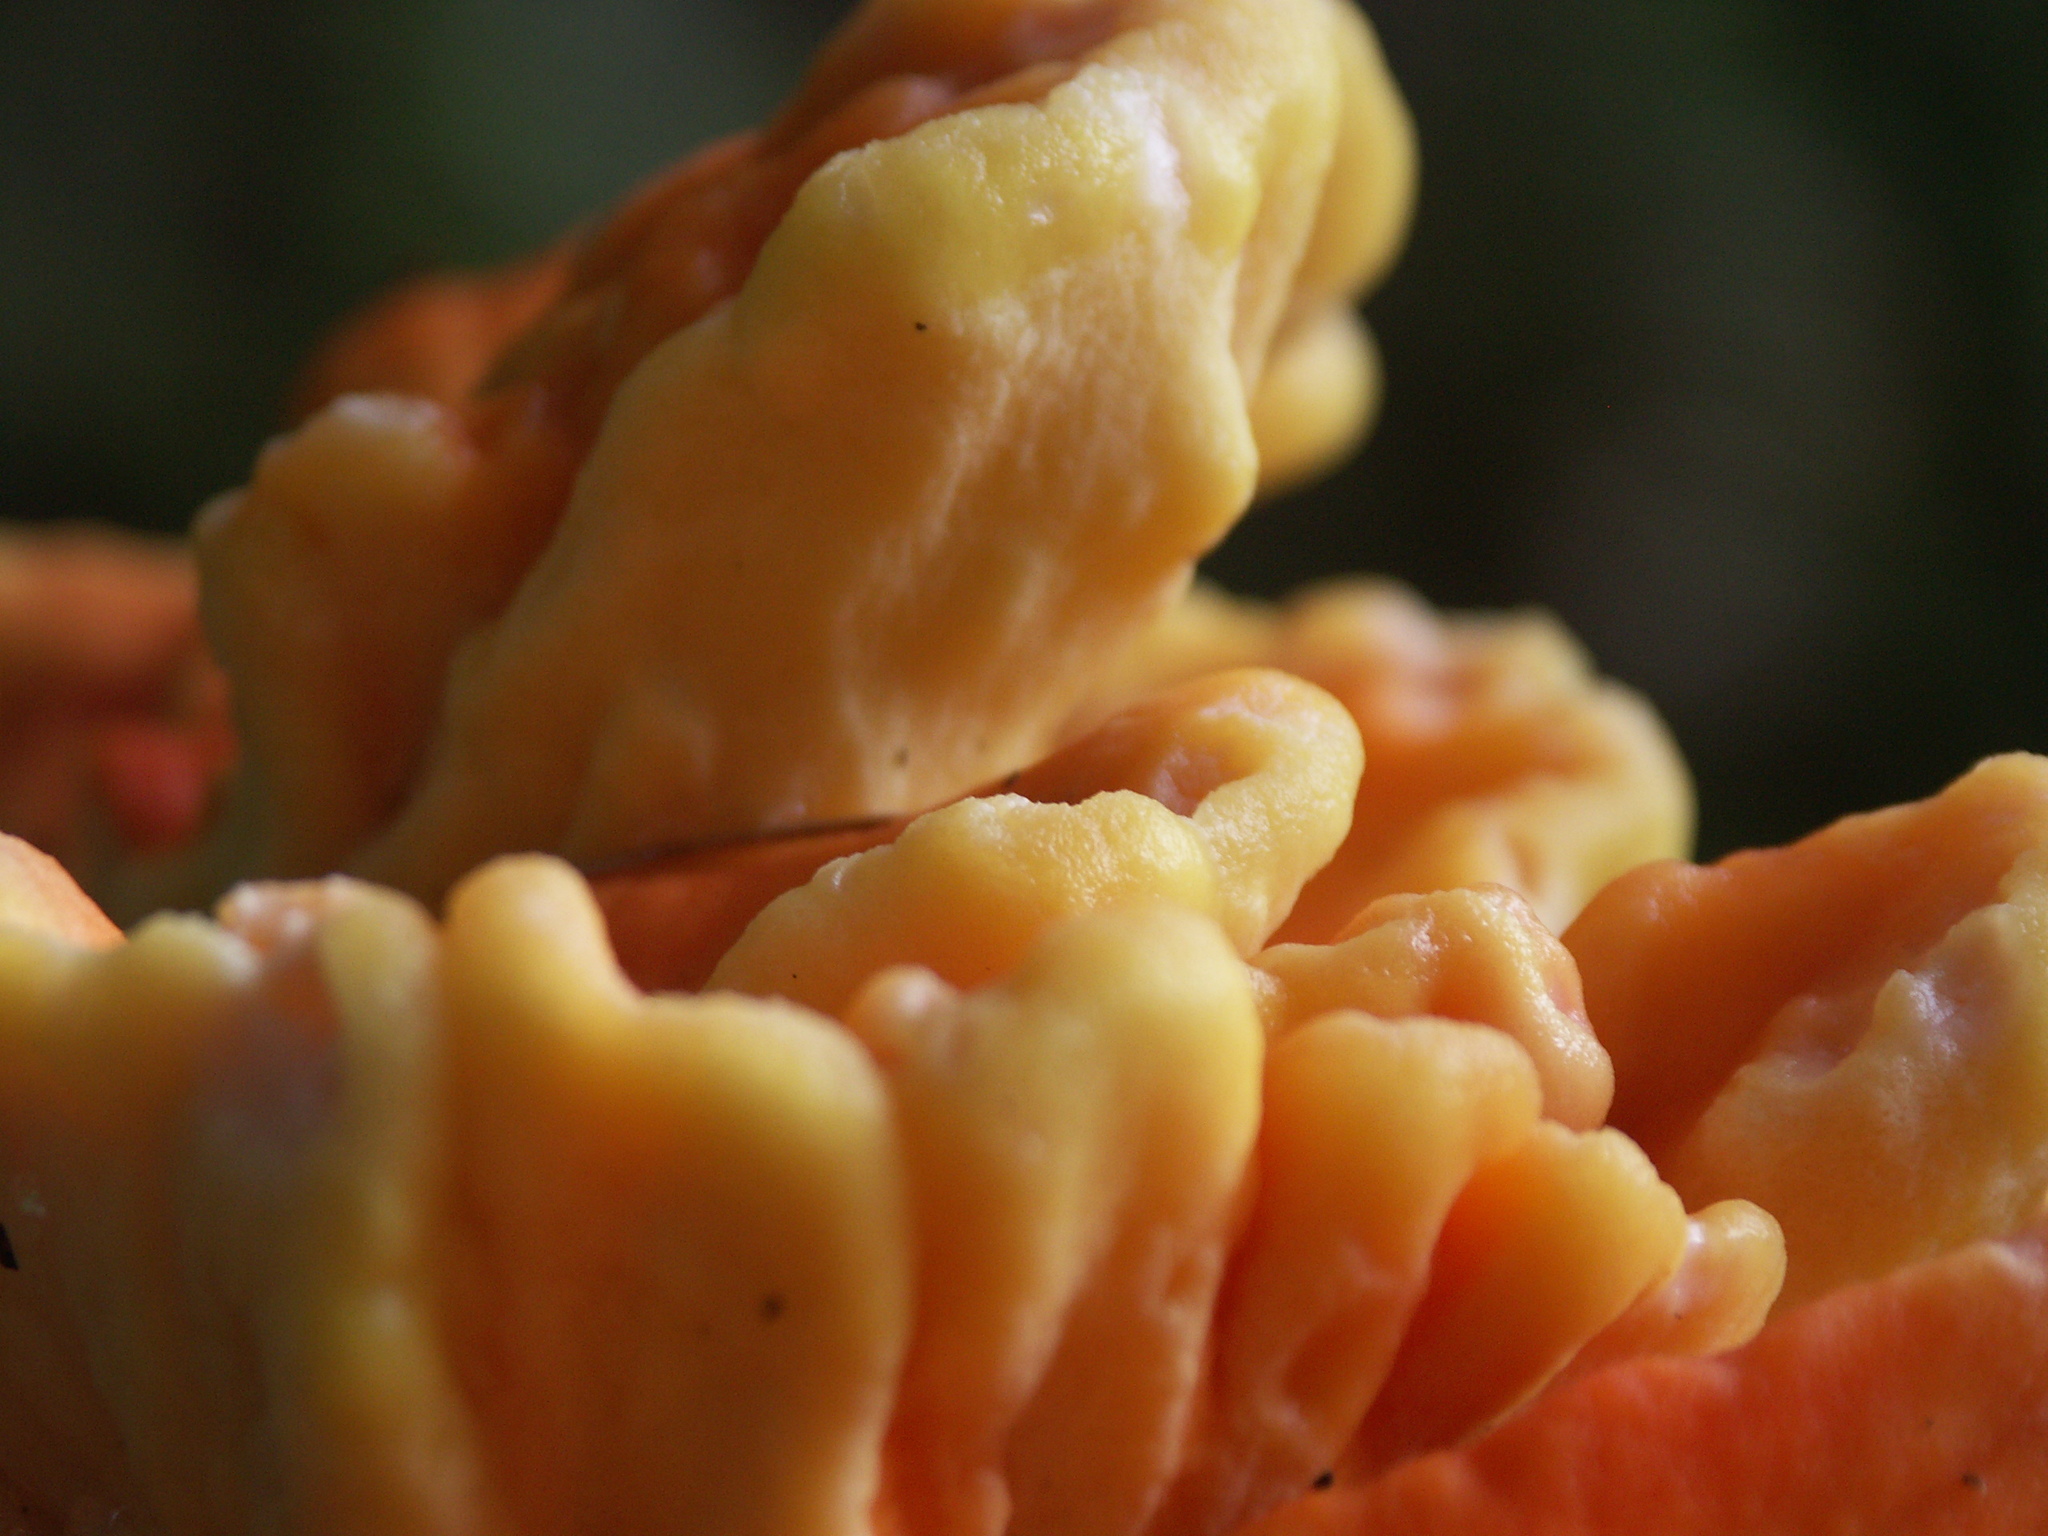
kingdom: Fungi
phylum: Basidiomycota
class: Agaricomycetes
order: Polyporales
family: Laetiporaceae
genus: Laetiporus
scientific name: Laetiporus conifericola
